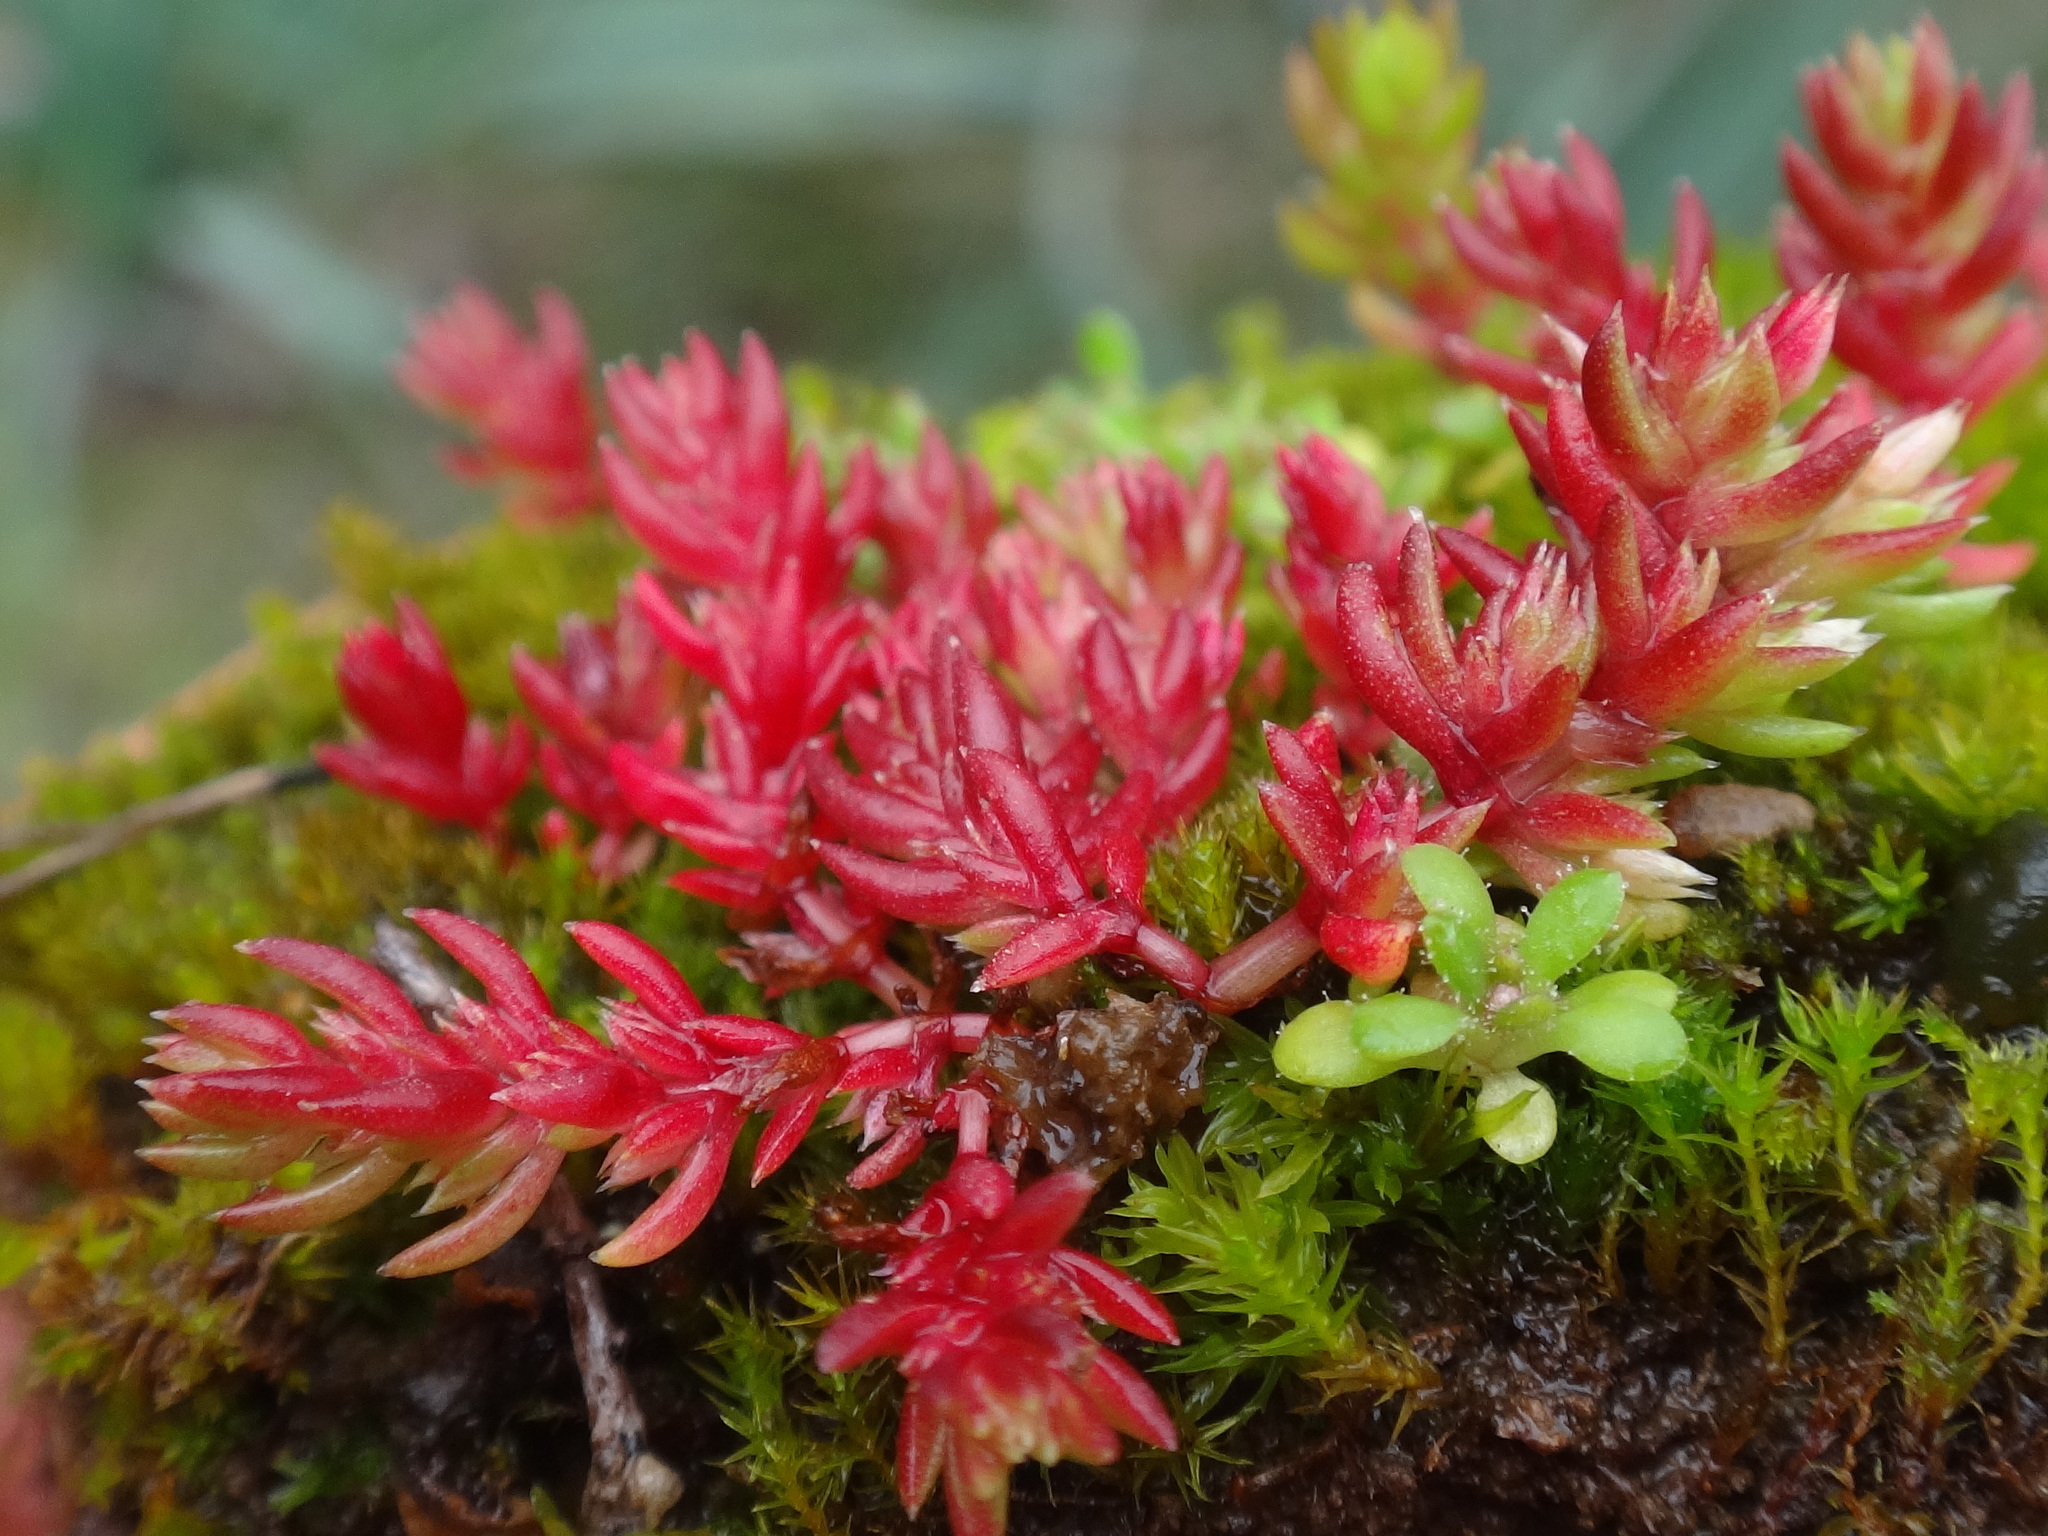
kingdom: Plantae
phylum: Tracheophyta
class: Magnoliopsida
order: Saxifragales
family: Crassulaceae
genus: Crassula
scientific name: Crassula tillaea
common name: Mossy stonecrop
